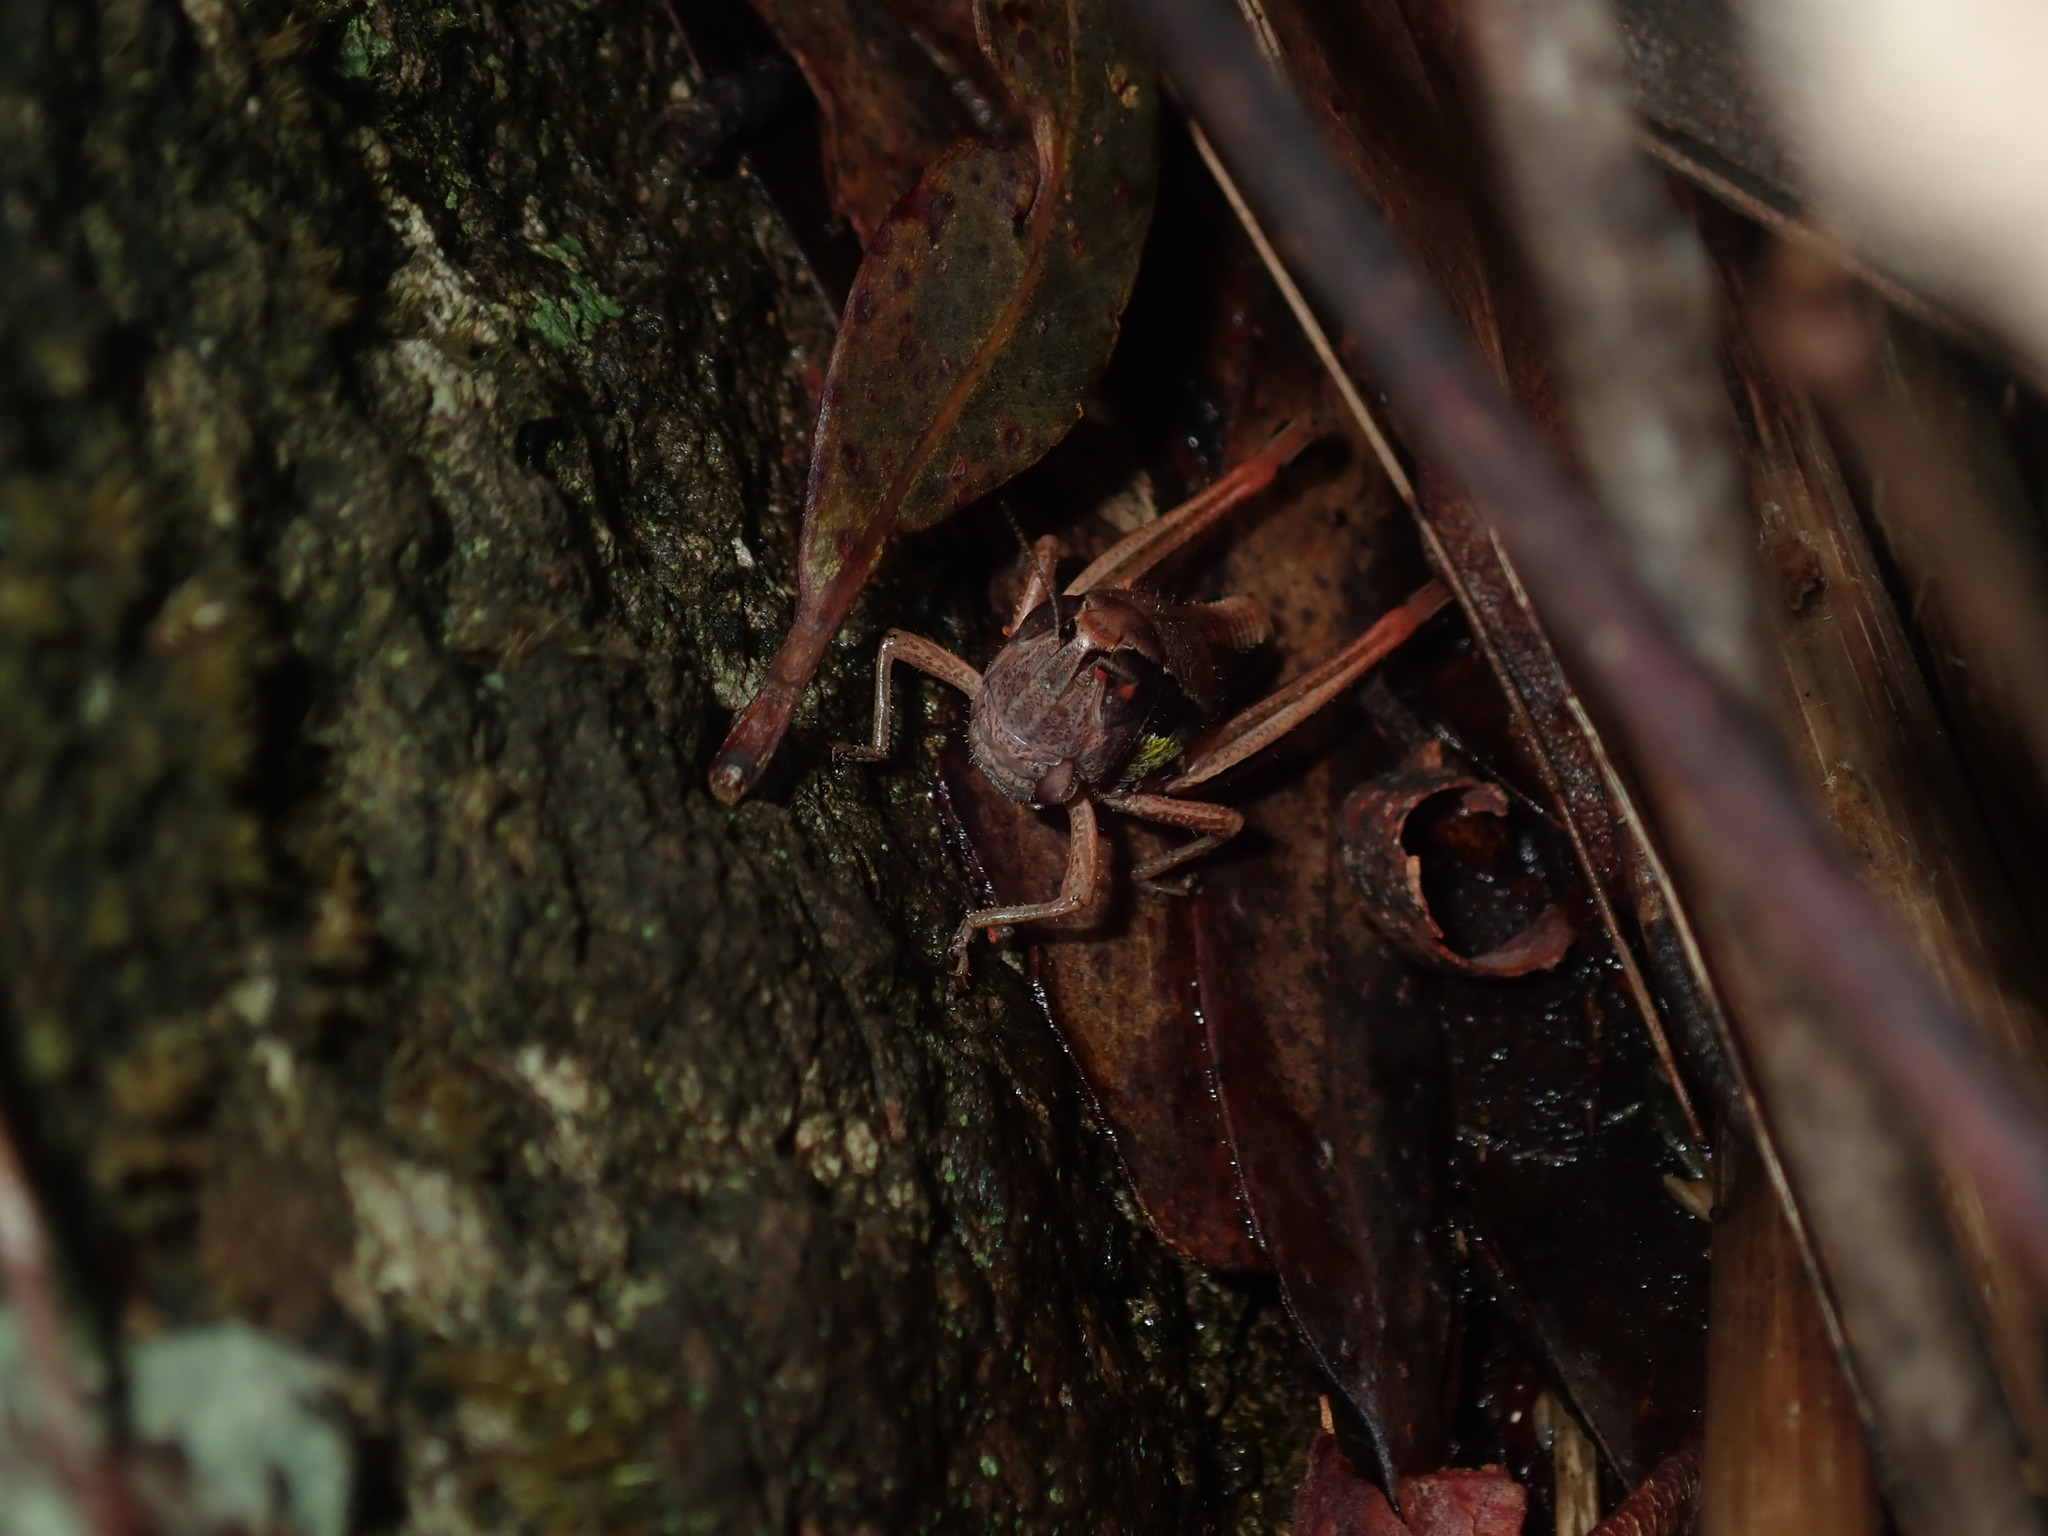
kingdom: Animalia
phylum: Arthropoda
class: Insecta
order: Orthoptera
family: Acrididae
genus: Praxibulus
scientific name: Praxibulus lewisi
